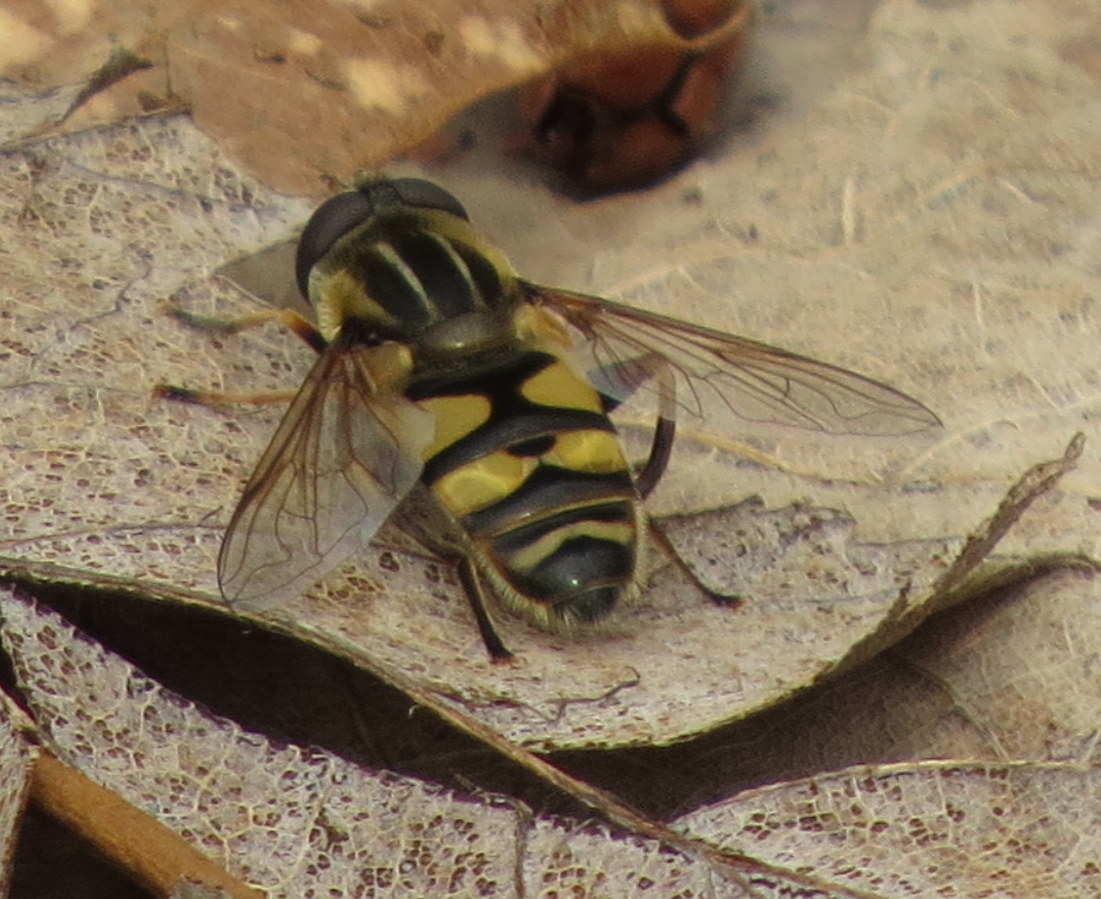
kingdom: Animalia
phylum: Arthropoda
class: Insecta
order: Diptera
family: Syrphidae
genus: Helophilus
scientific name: Helophilus fasciatus
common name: Narrow-headed marsh fly
